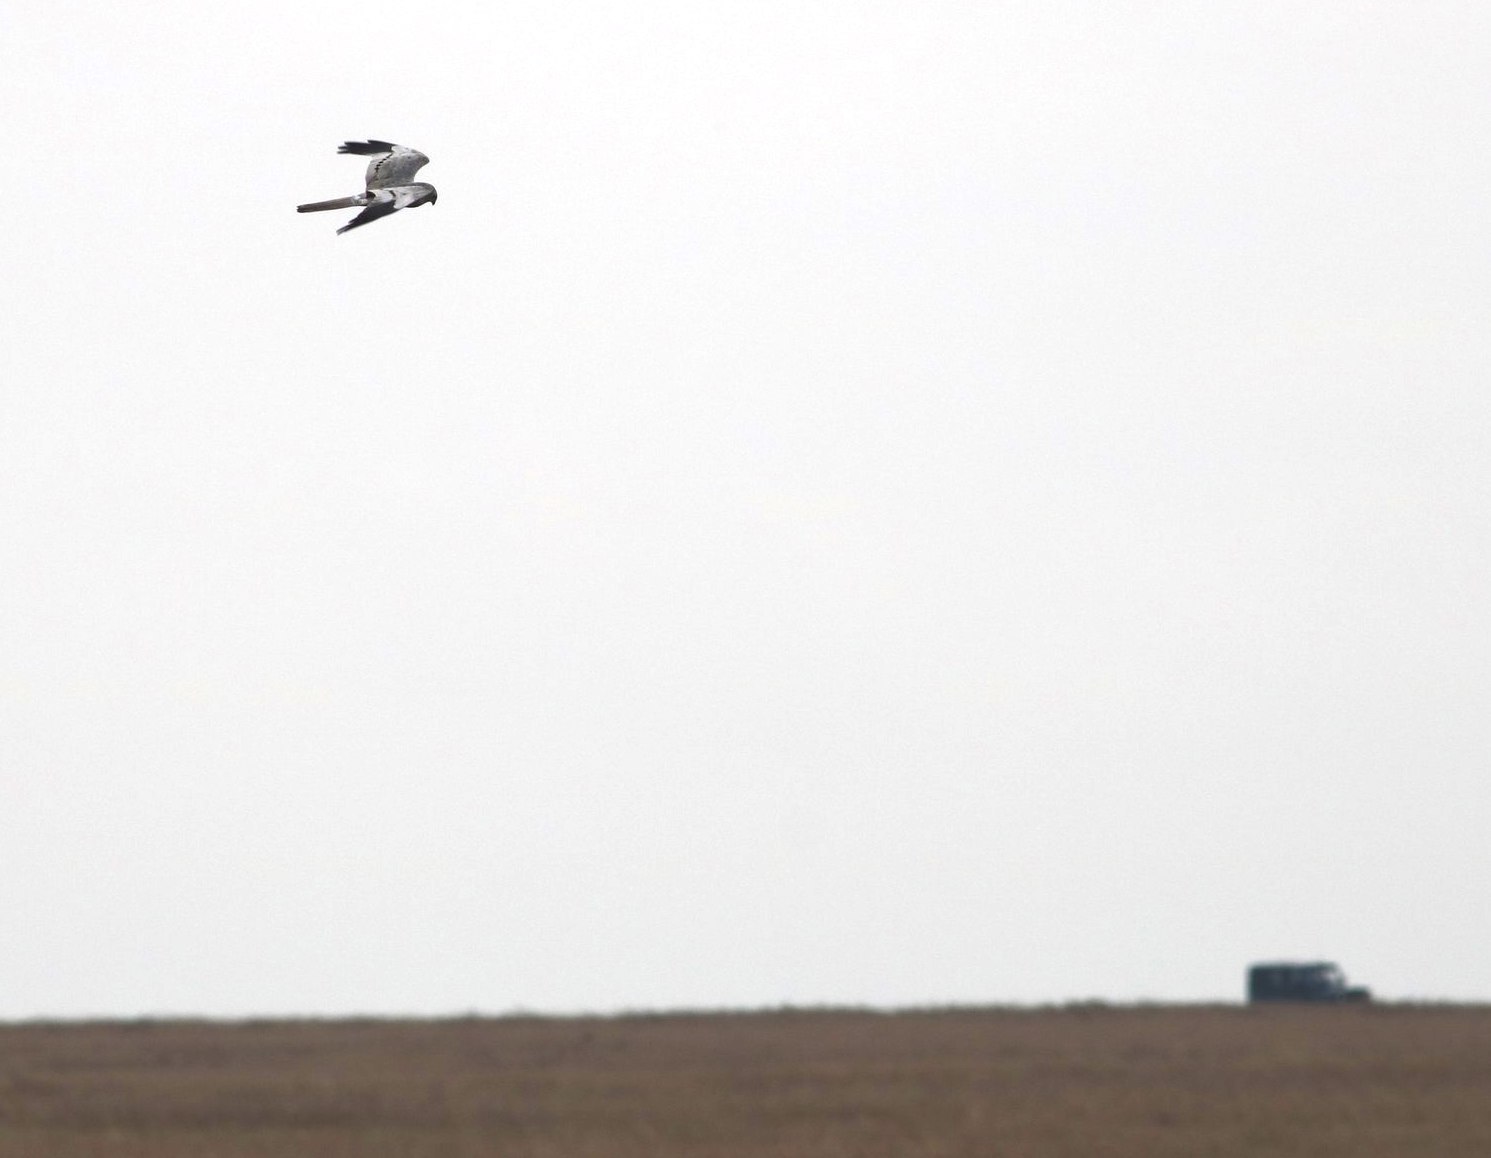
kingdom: Animalia
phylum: Chordata
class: Aves
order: Accipitriformes
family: Accipitridae
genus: Circus
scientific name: Circus pygargus
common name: Montagu's harrier
